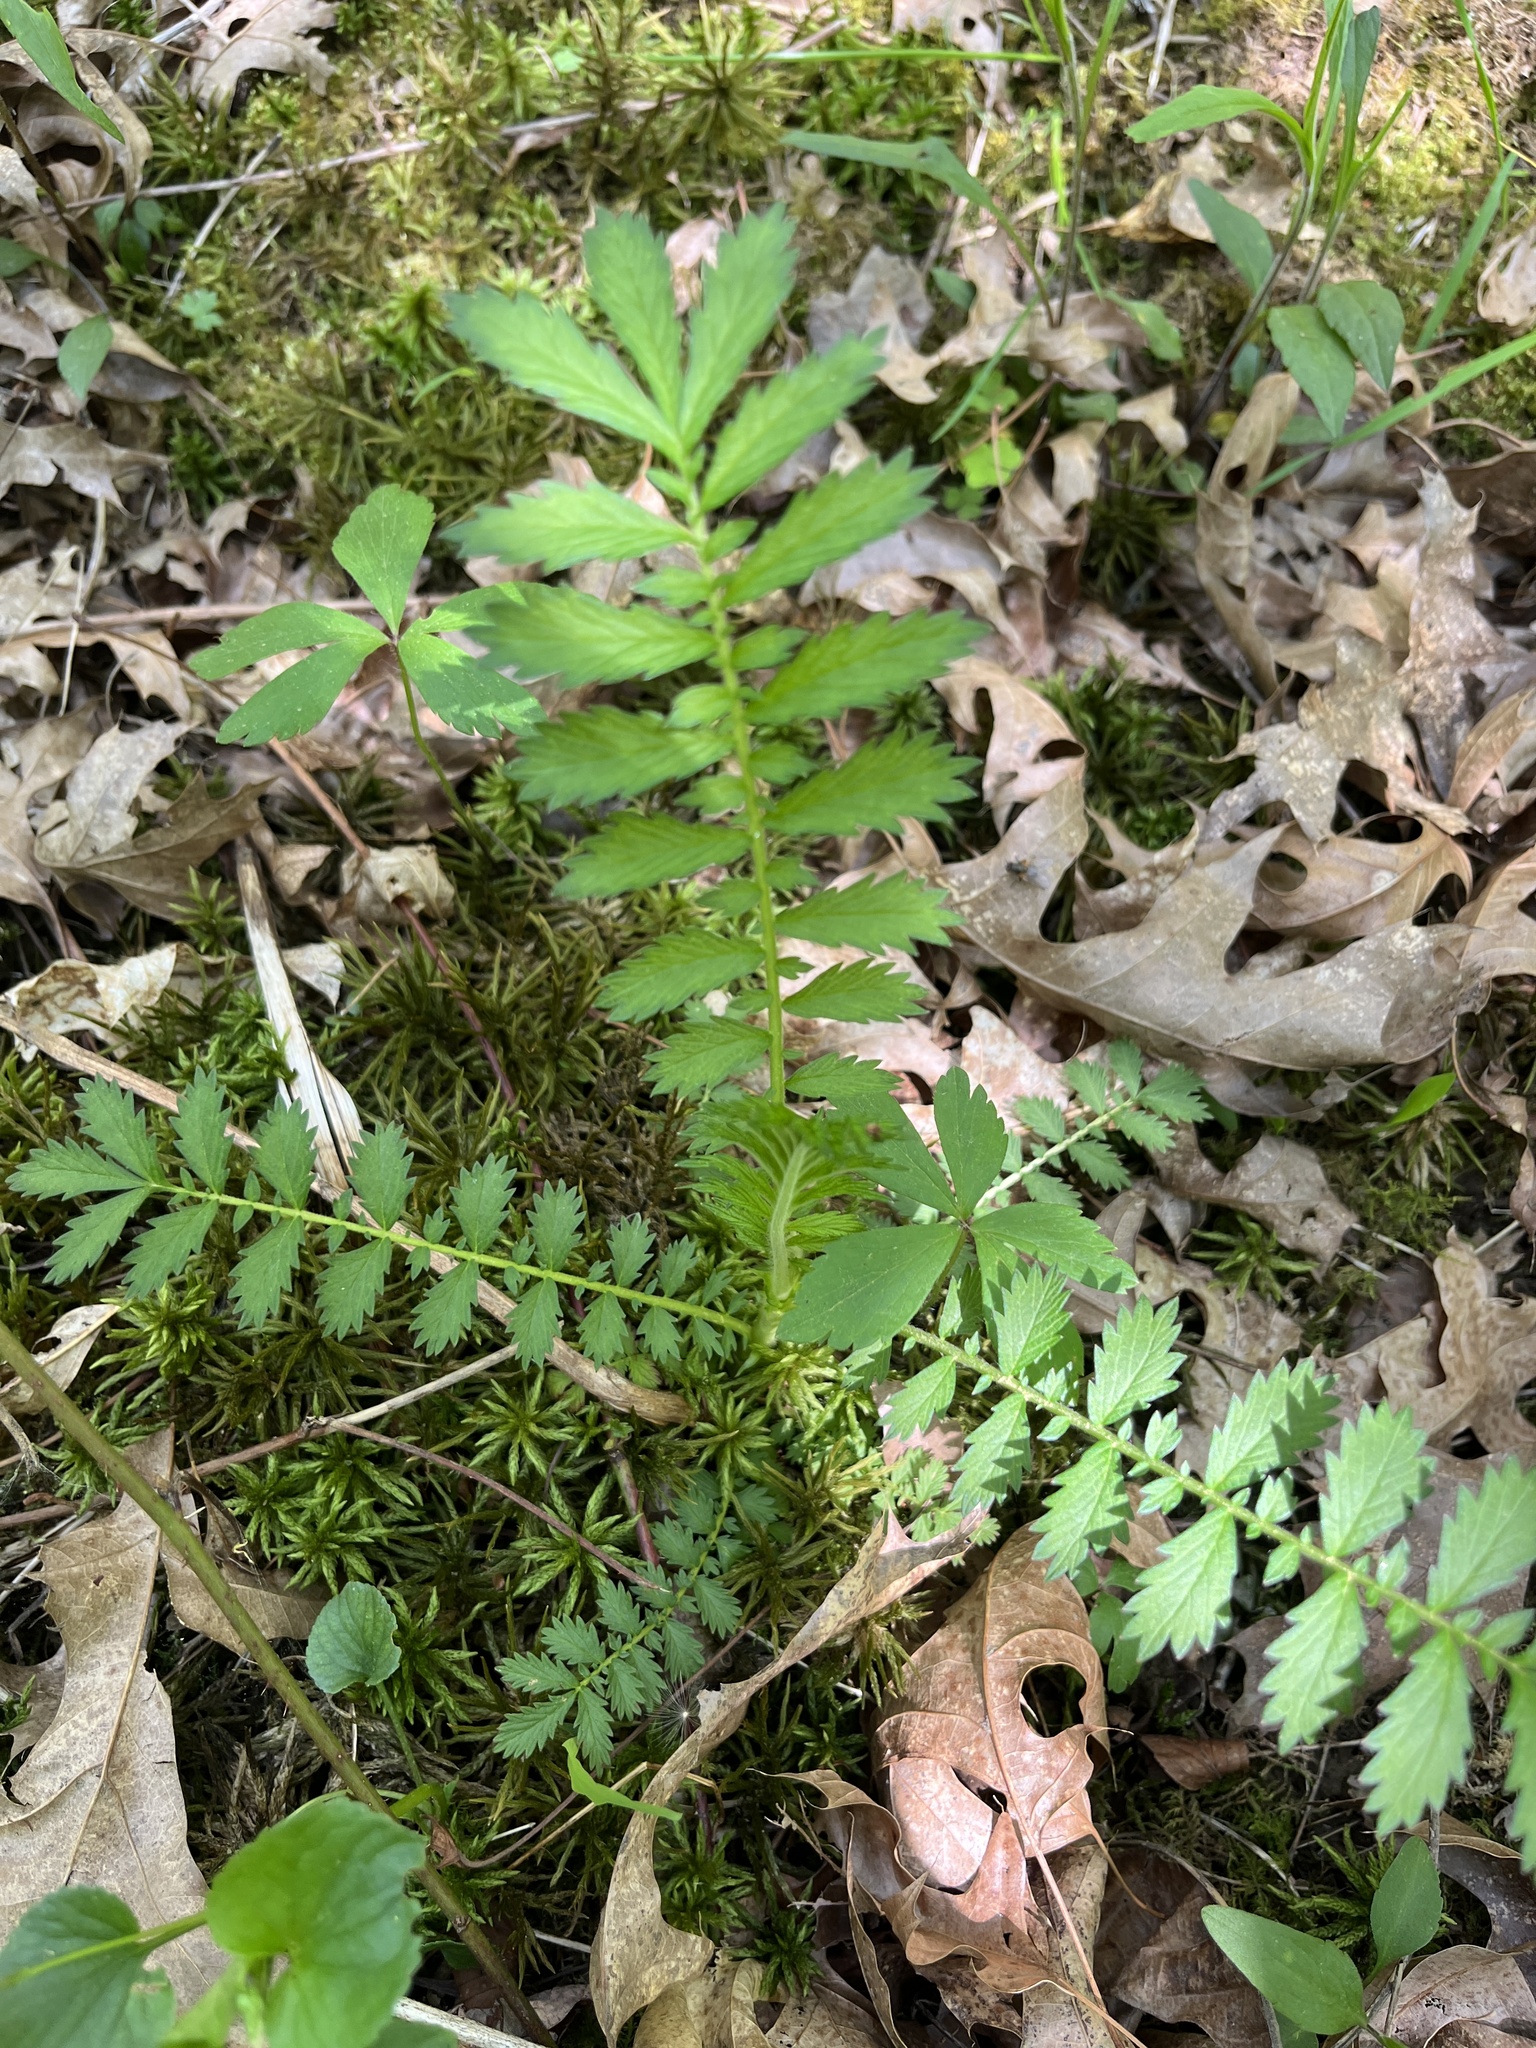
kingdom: Plantae
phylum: Tracheophyta
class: Magnoliopsida
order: Rosales
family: Rosaceae
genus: Agrimonia
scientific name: Agrimonia parviflora
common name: Harvest-lice
